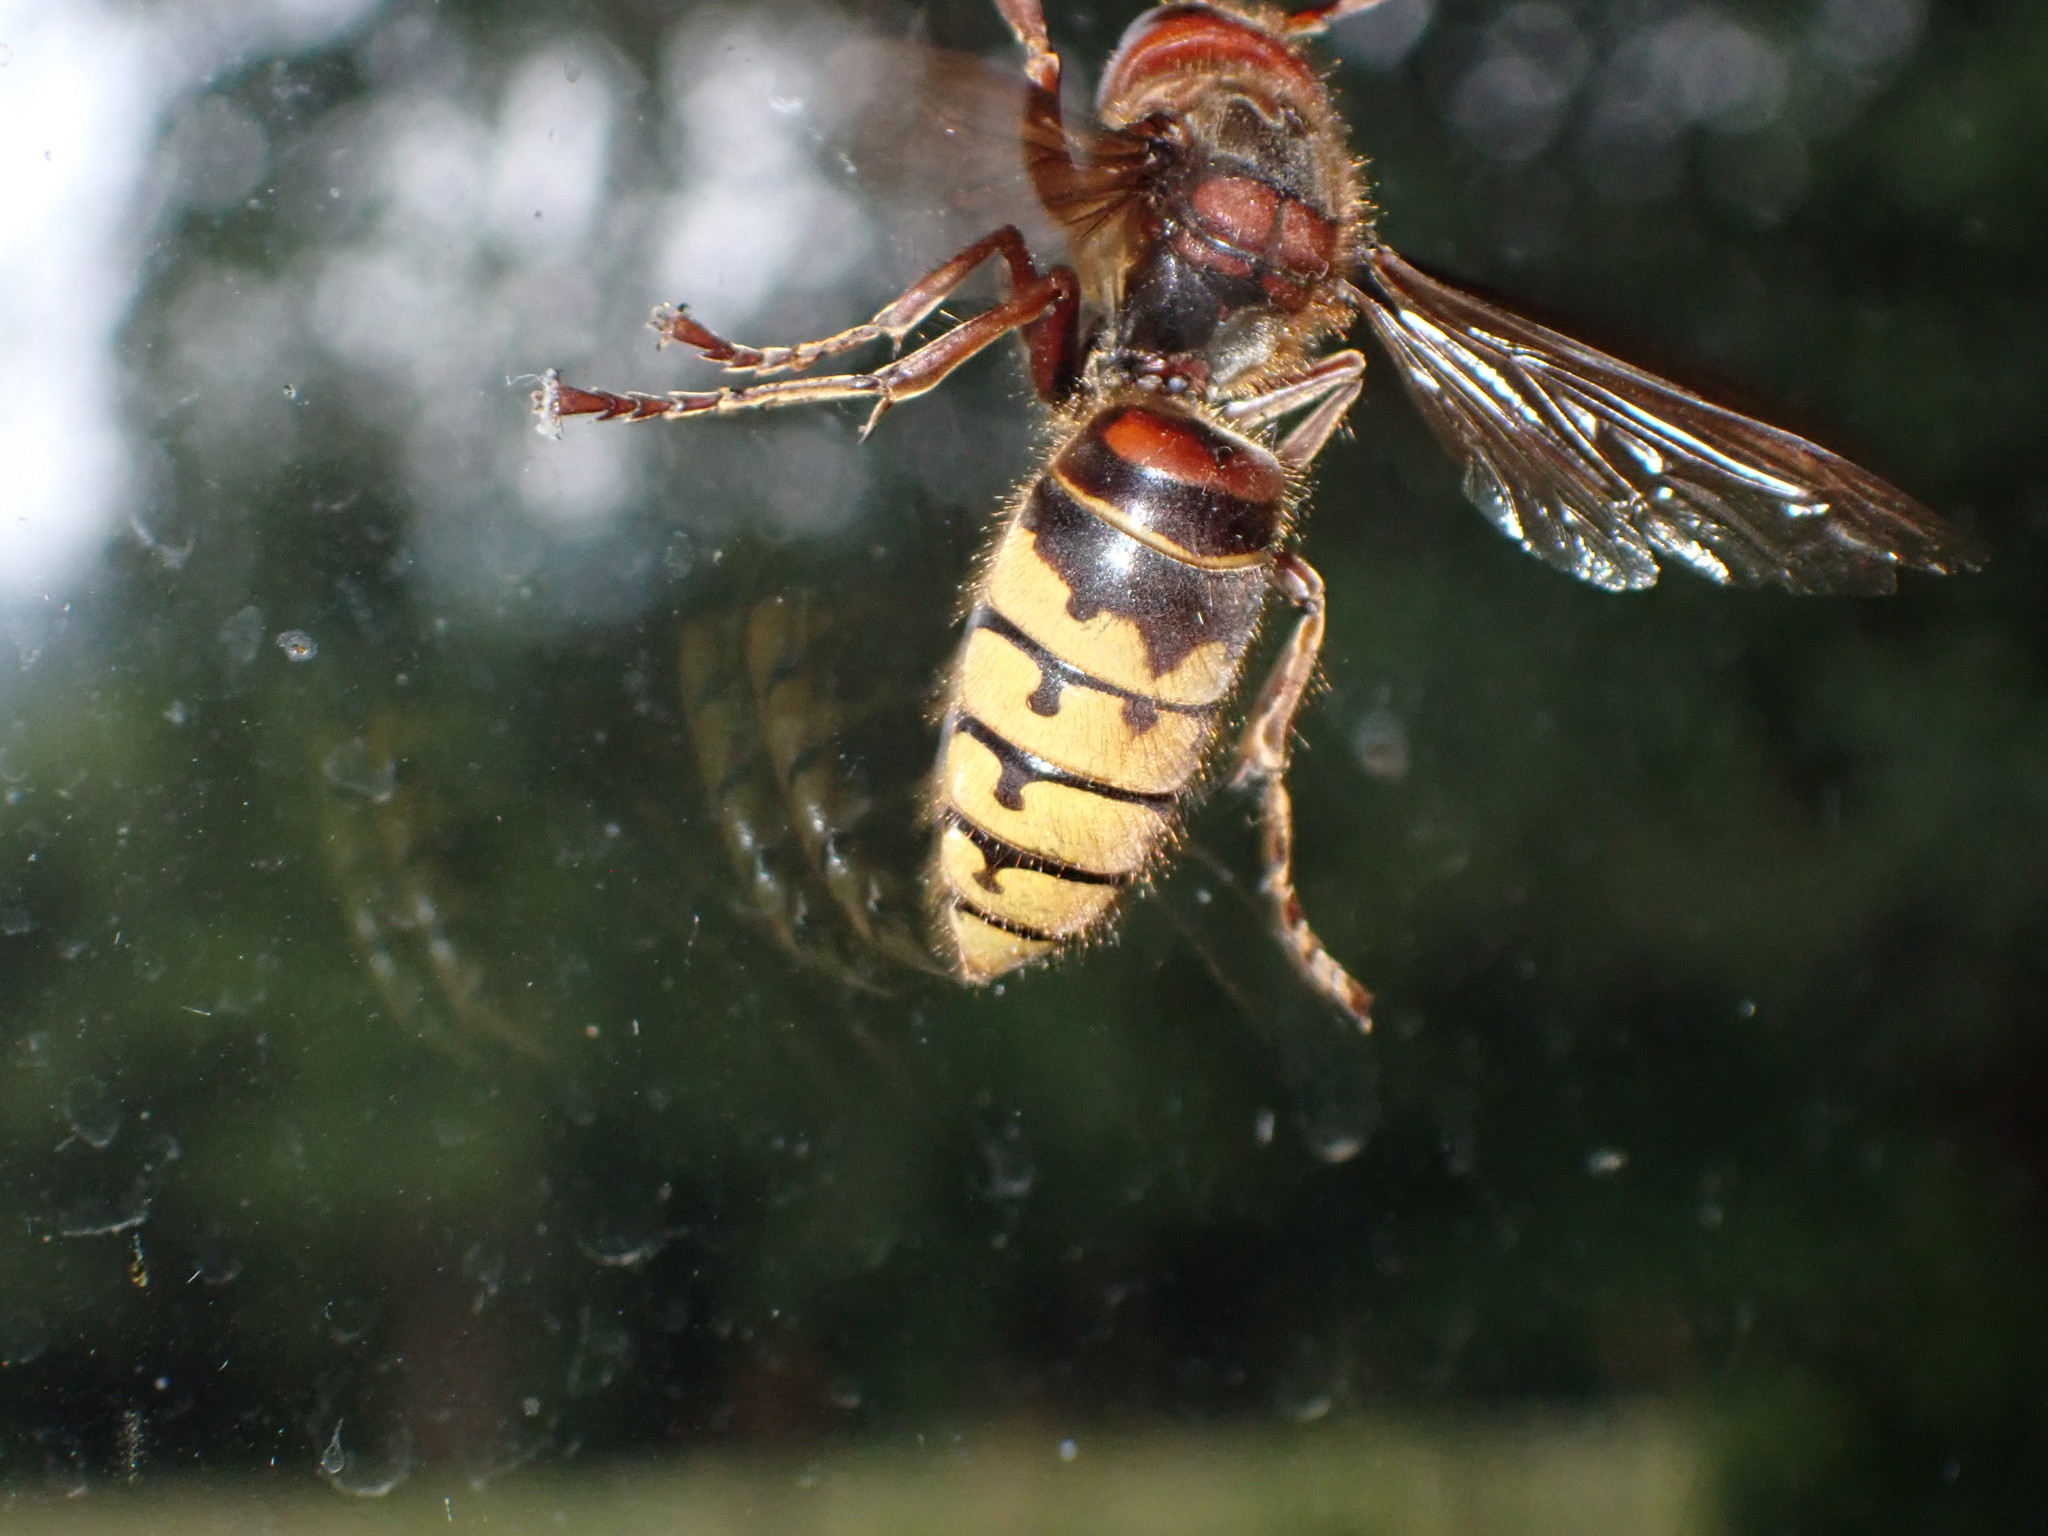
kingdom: Animalia
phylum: Arthropoda
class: Insecta
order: Hymenoptera
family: Vespidae
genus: Vespa
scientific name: Vespa crabro
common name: Hornet
